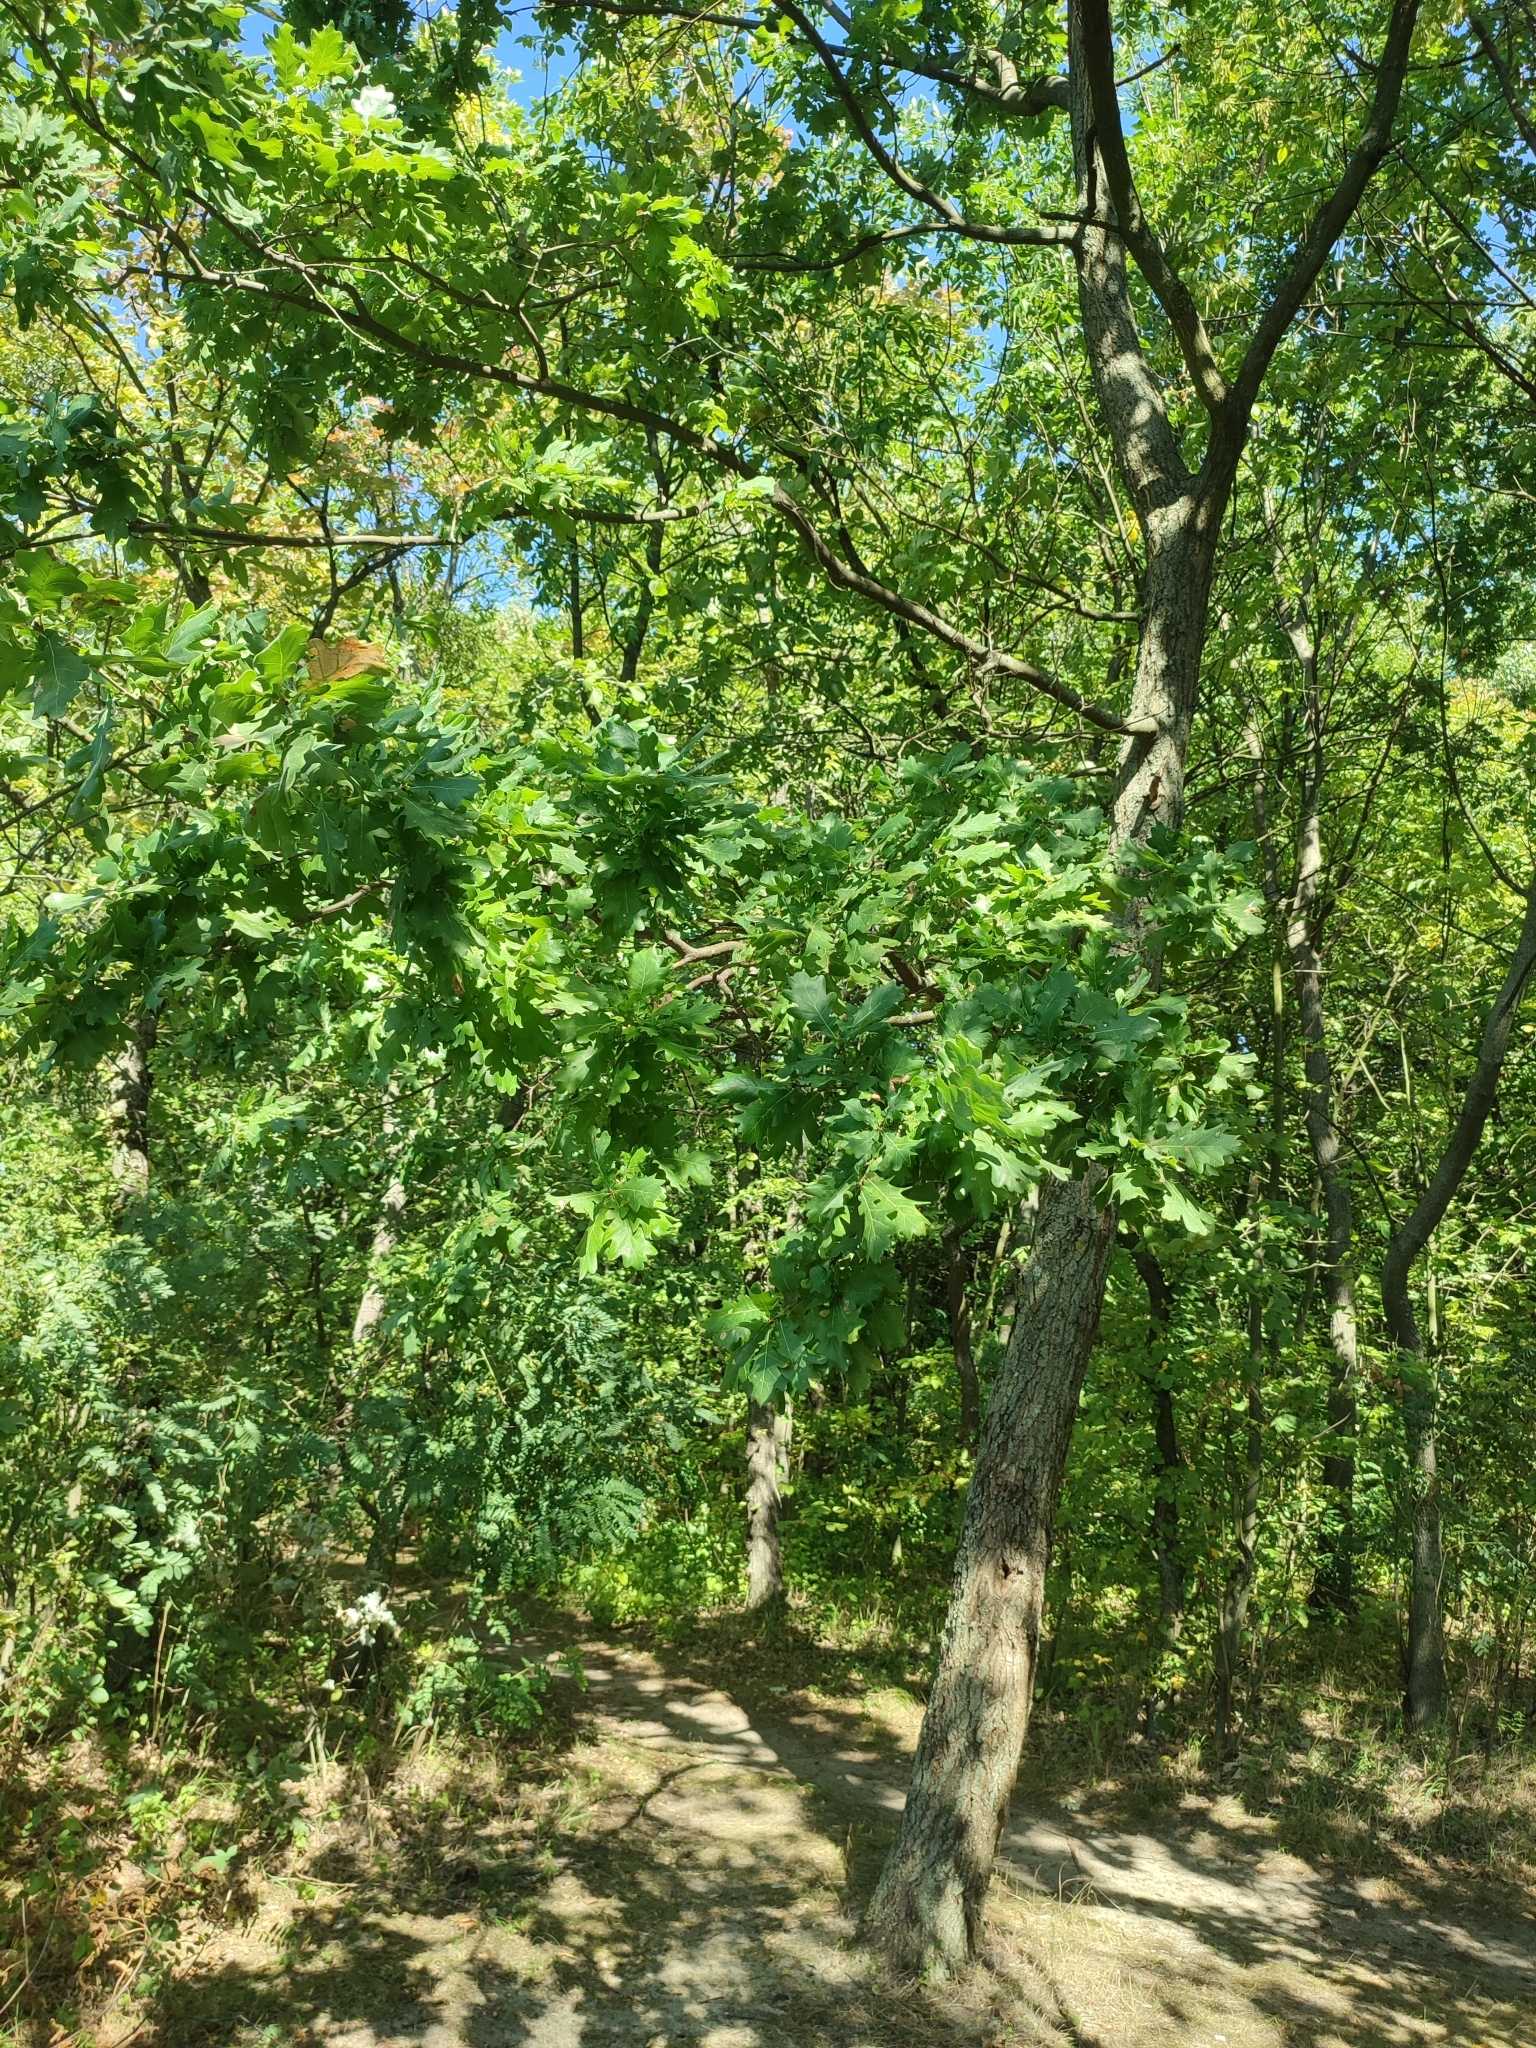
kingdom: Plantae
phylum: Tracheophyta
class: Magnoliopsida
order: Fagales
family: Fagaceae
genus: Quercus
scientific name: Quercus robur
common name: Pedunculate oak
